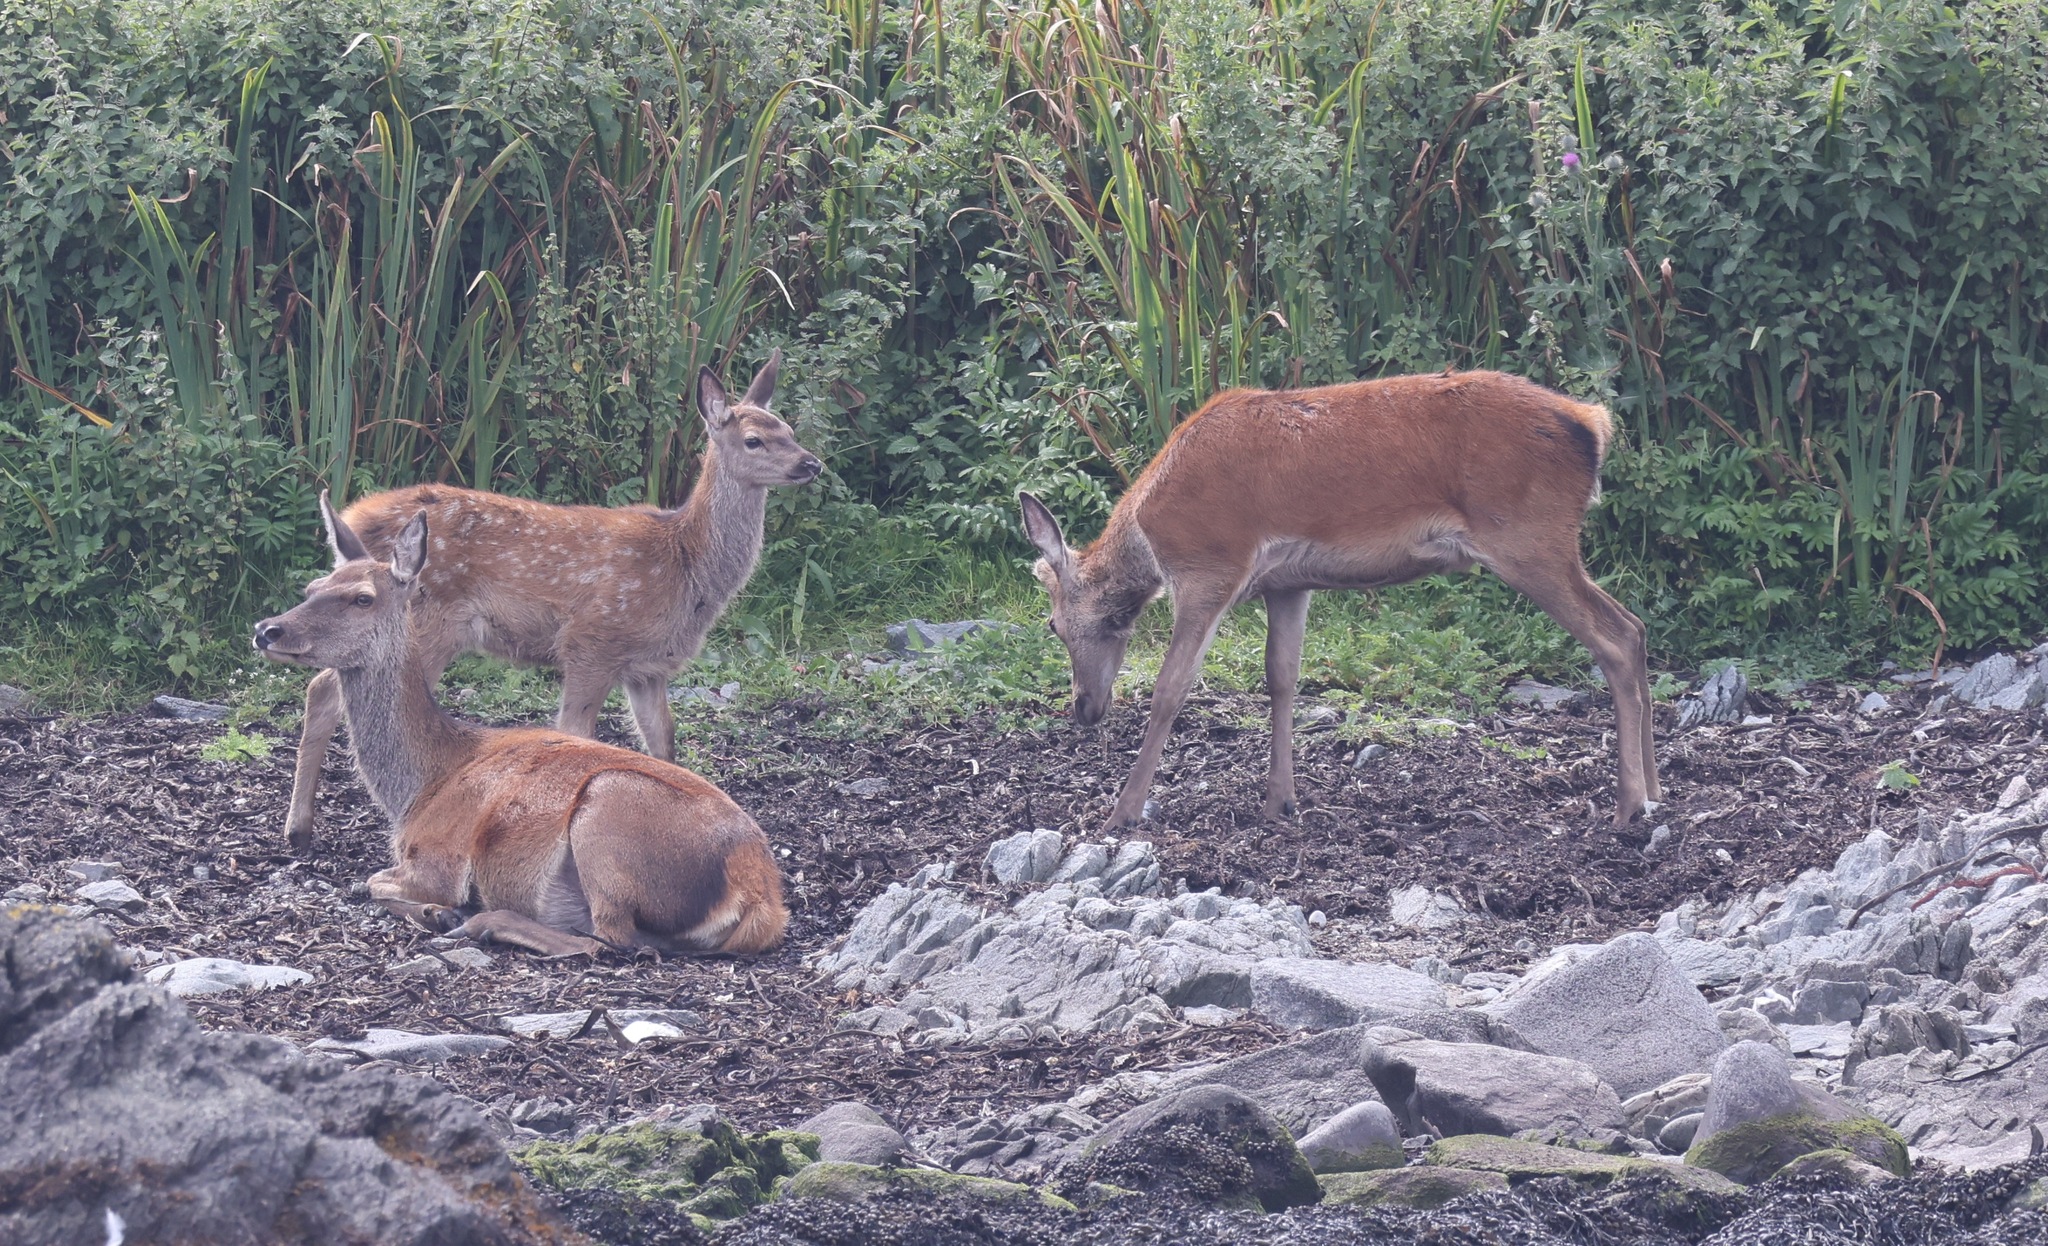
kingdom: Animalia
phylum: Chordata
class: Mammalia
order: Artiodactyla
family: Cervidae
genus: Cervus
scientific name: Cervus elaphus
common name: Red deer
